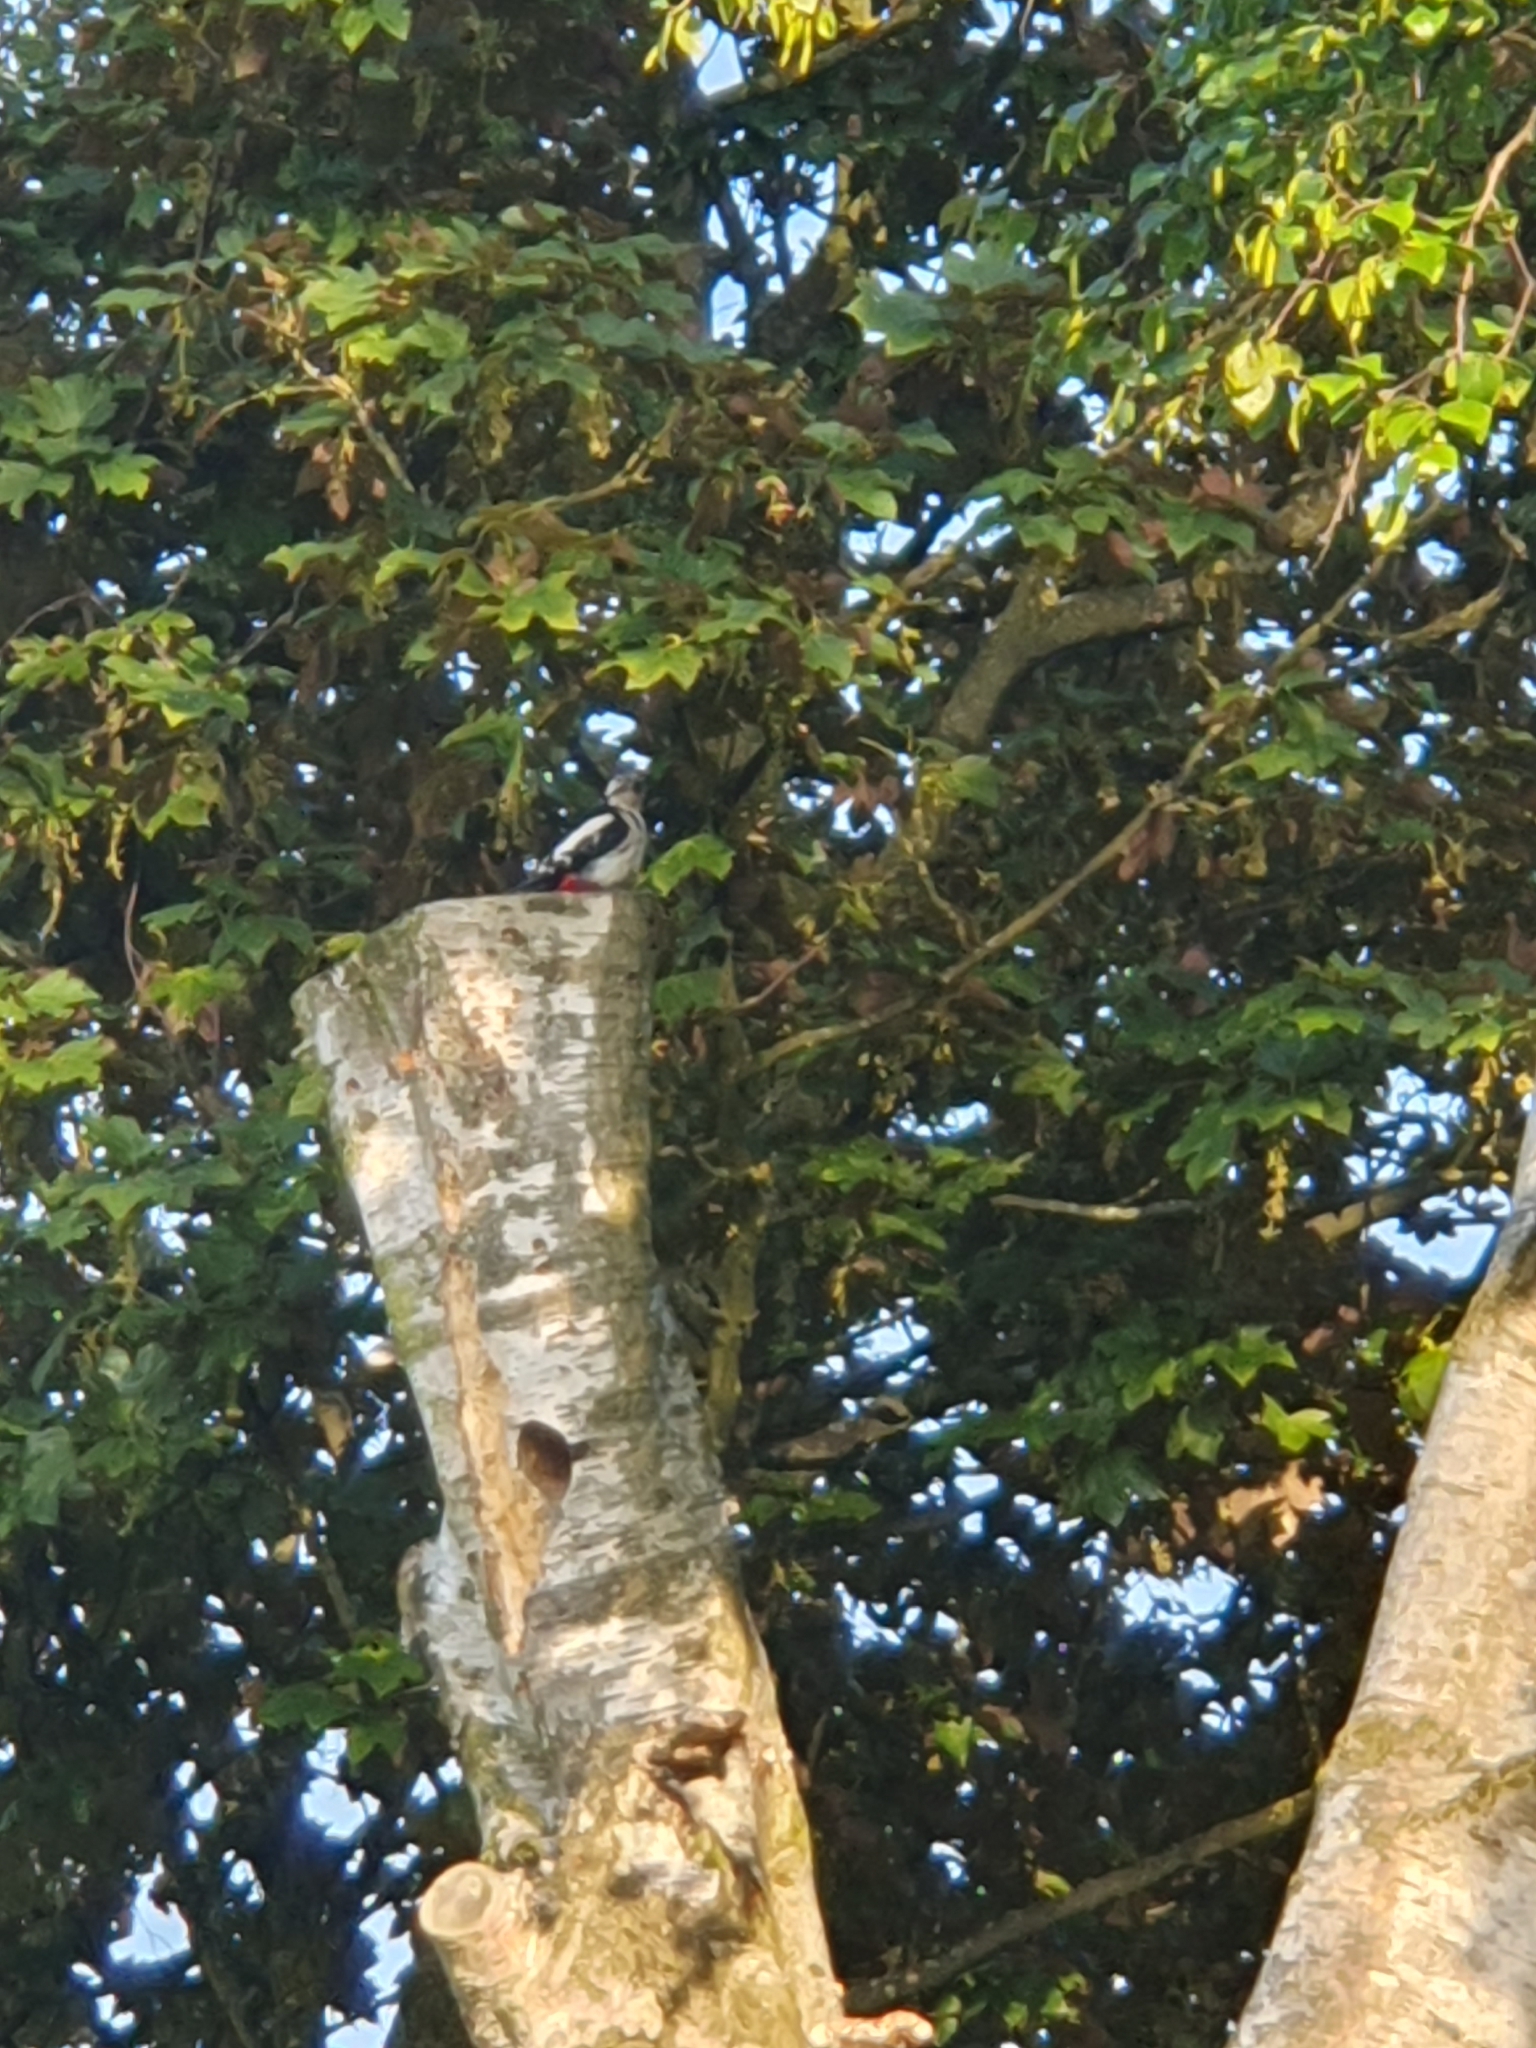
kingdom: Animalia
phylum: Chordata
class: Aves
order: Piciformes
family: Picidae
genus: Dendrocopos
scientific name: Dendrocopos major
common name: Great spotted woodpecker
